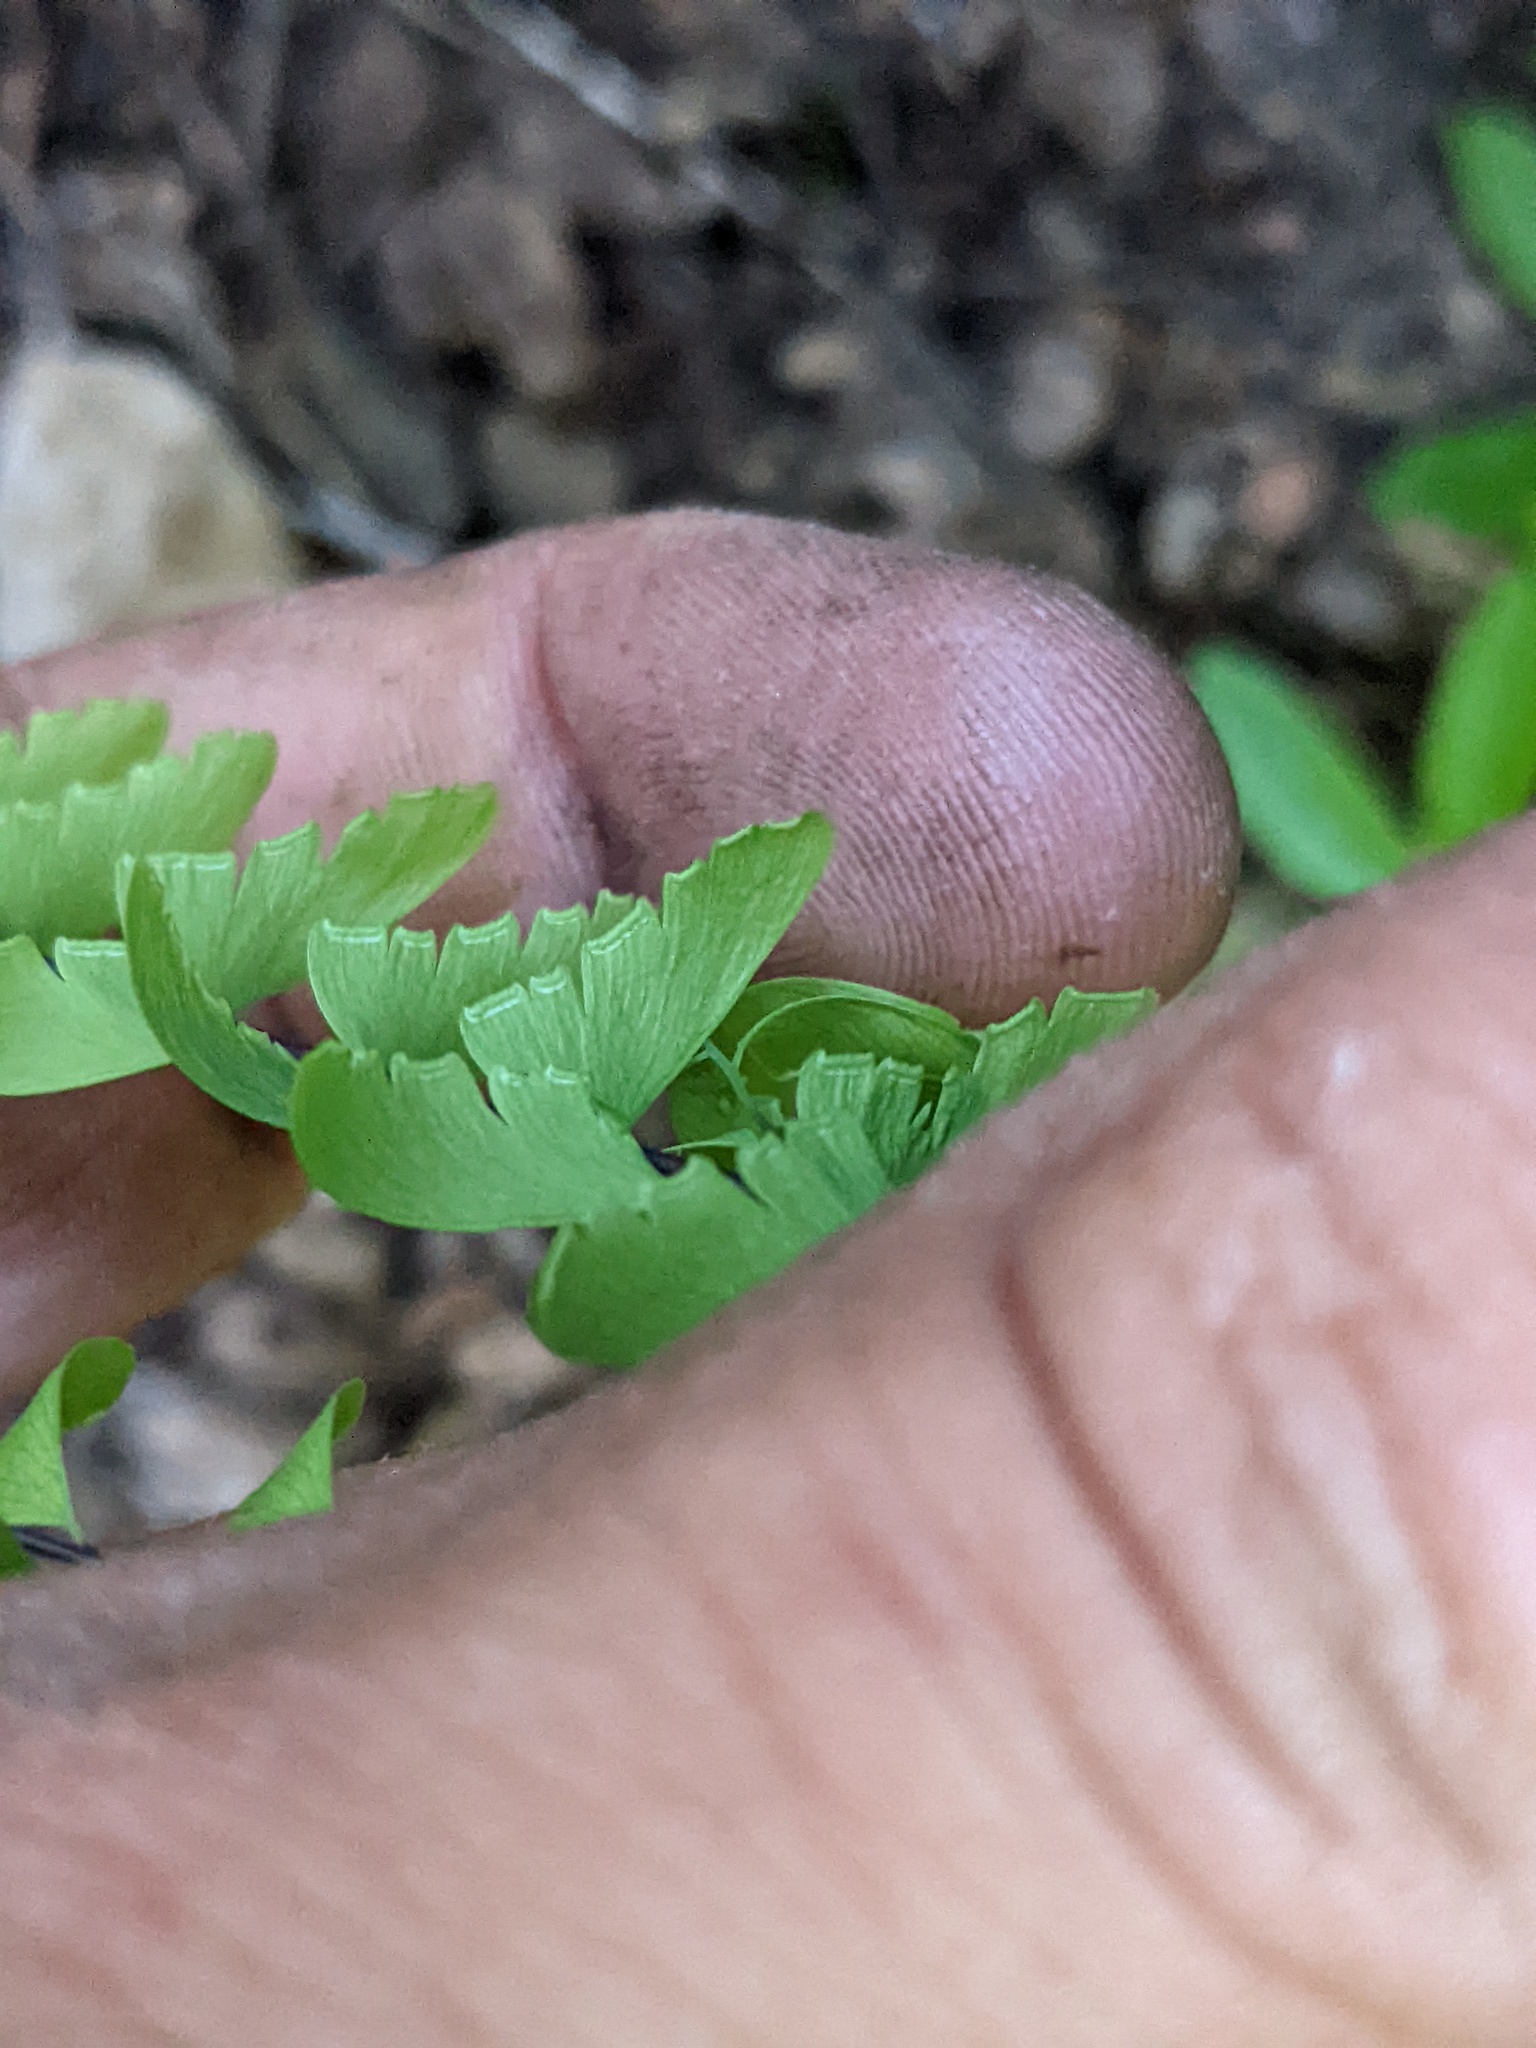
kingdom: Plantae
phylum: Tracheophyta
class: Polypodiopsida
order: Polypodiales
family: Pteridaceae
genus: Adiantum
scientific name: Adiantum aleuticum
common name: Aleutian maidenhair fern
